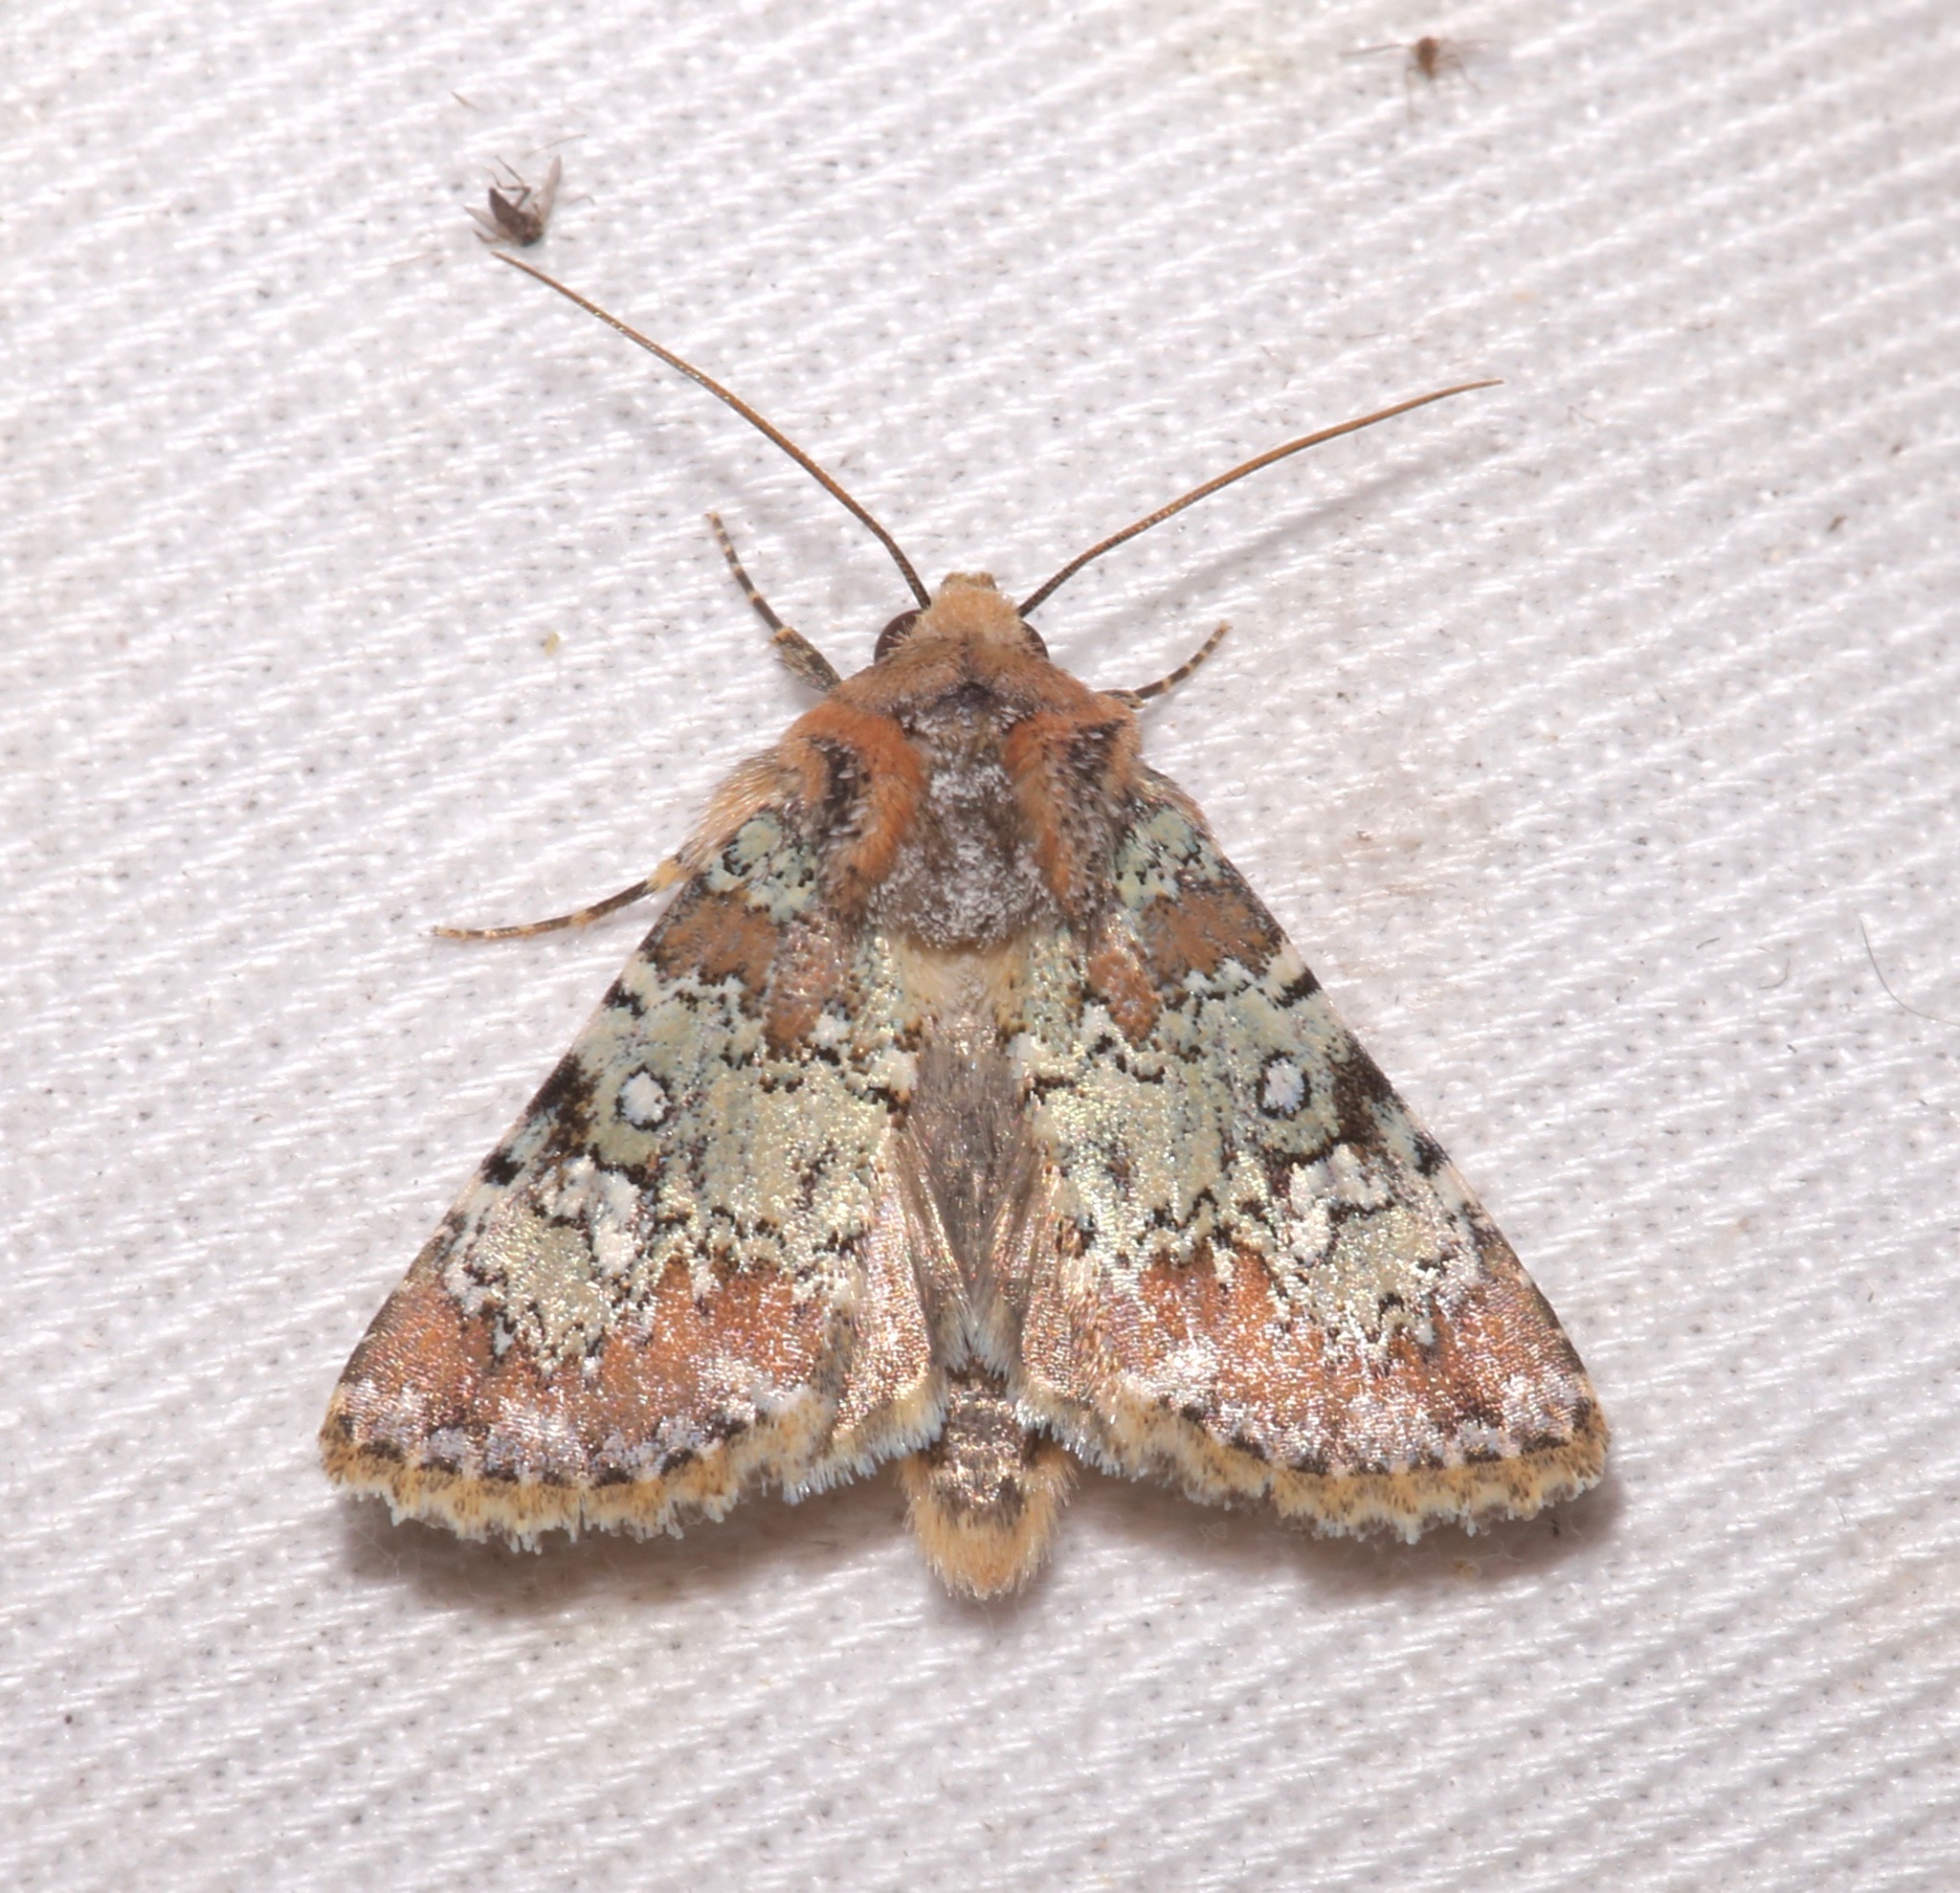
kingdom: Animalia
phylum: Arthropoda
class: Insecta
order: Lepidoptera
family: Noctuidae
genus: Hemibryomima
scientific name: Hemibryomima chryselectra
